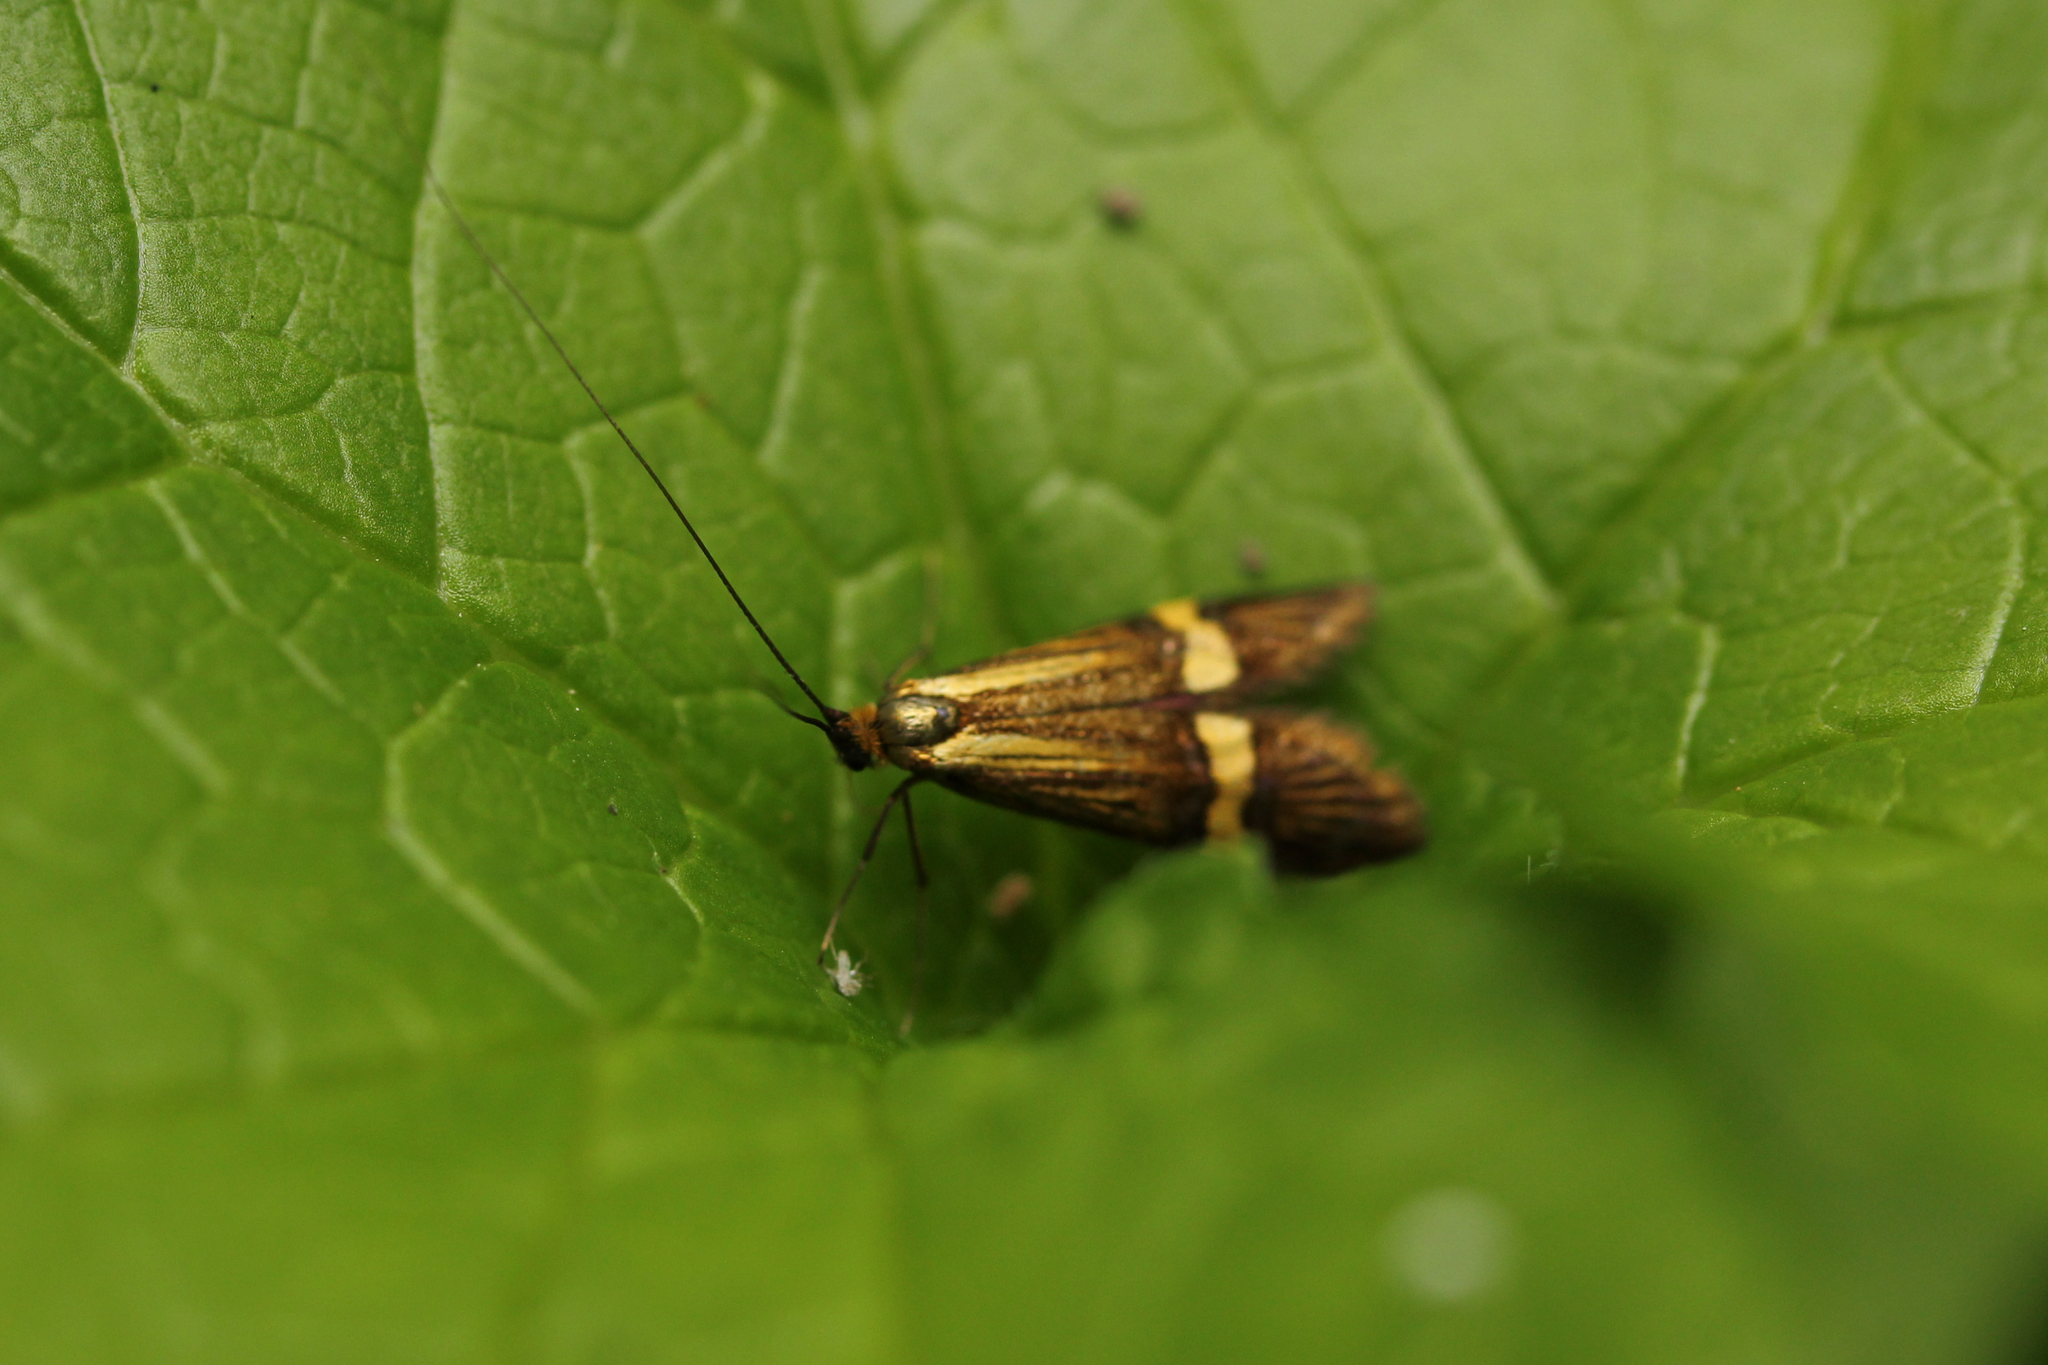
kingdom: Animalia
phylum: Arthropoda
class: Insecta
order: Lepidoptera
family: Adelidae
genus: Nemophora
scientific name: Nemophora
